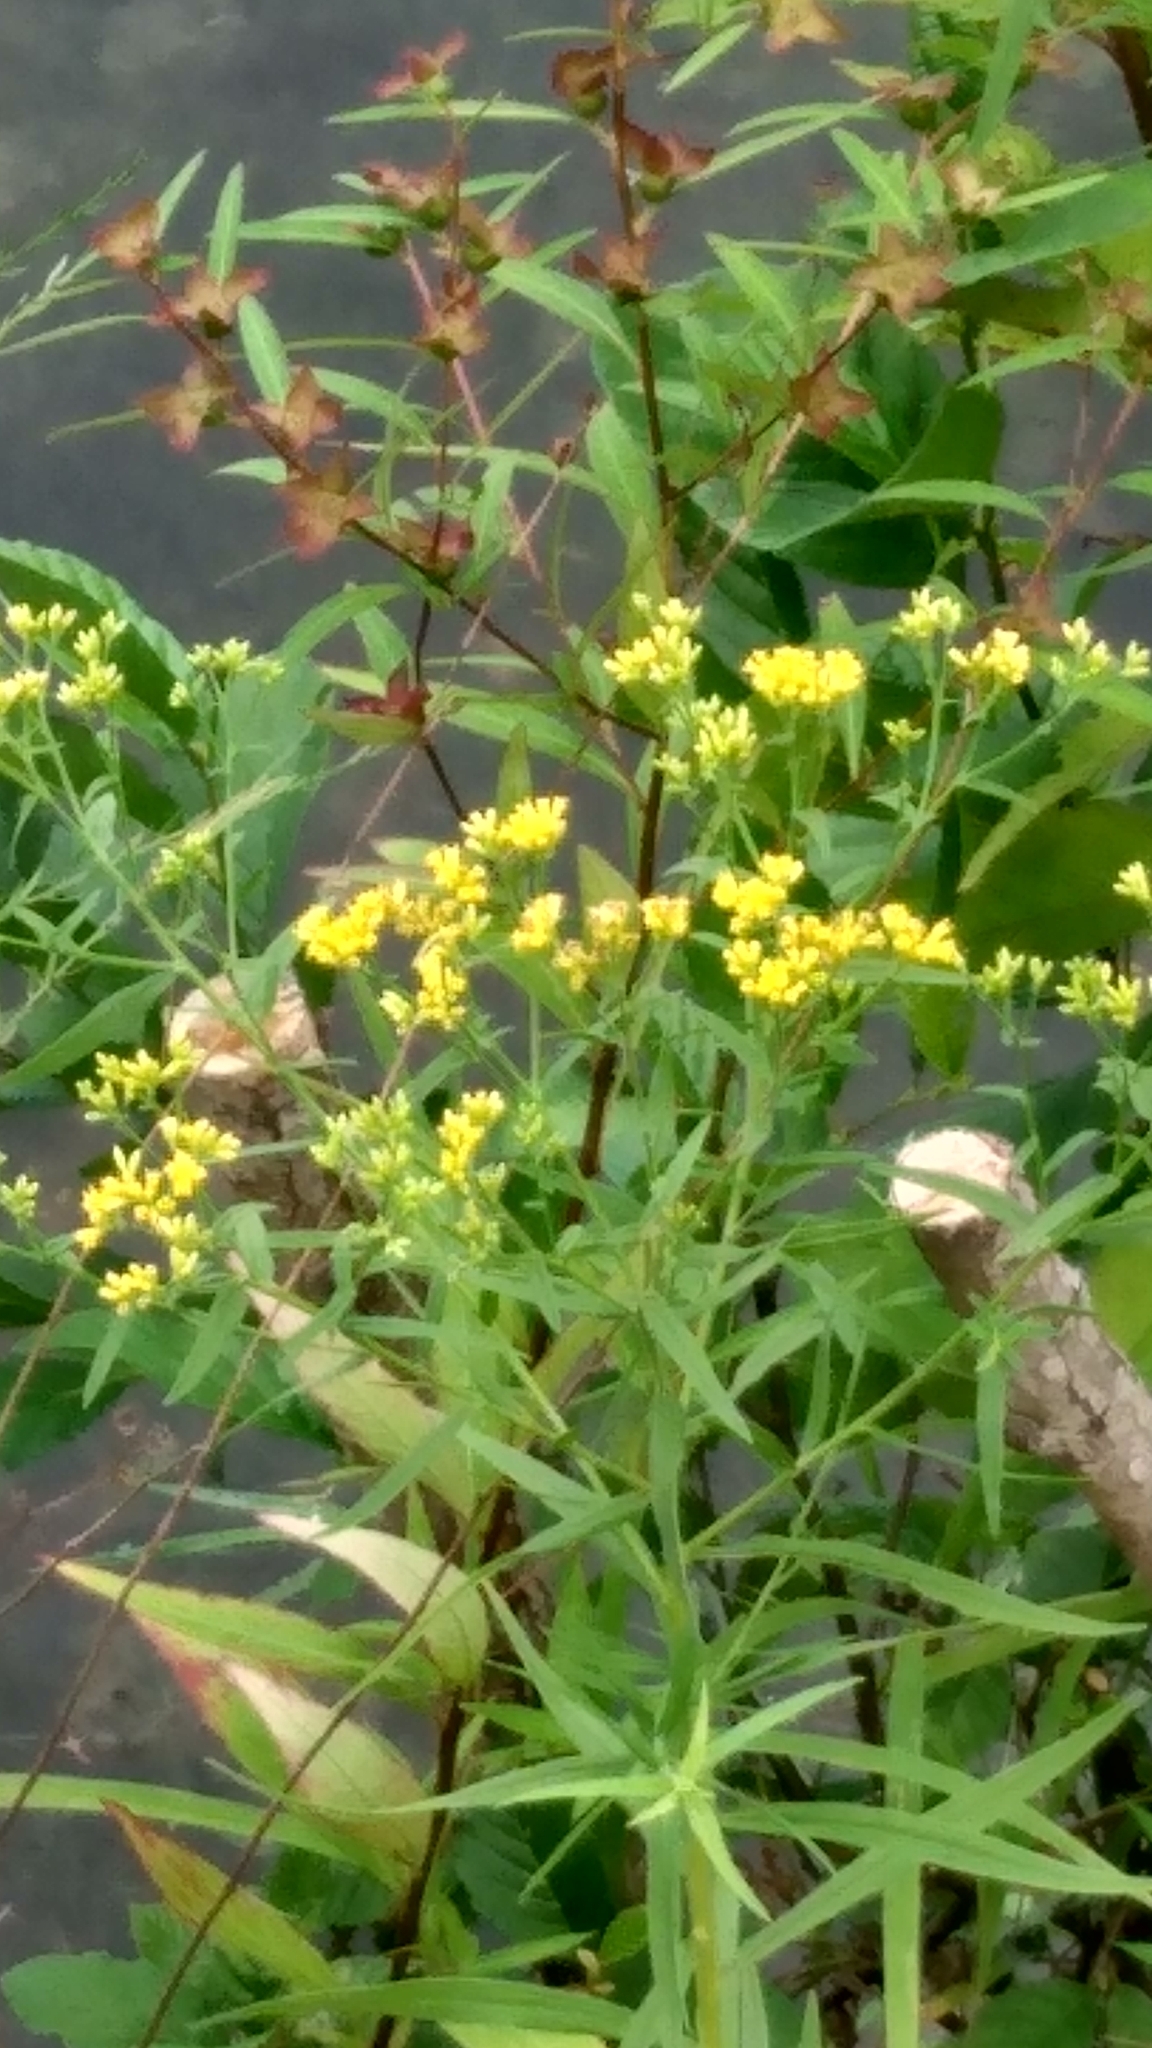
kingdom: Plantae
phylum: Tracheophyta
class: Magnoliopsida
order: Asterales
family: Asteraceae
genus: Euthamia
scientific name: Euthamia graminifolia
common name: Common goldentop
